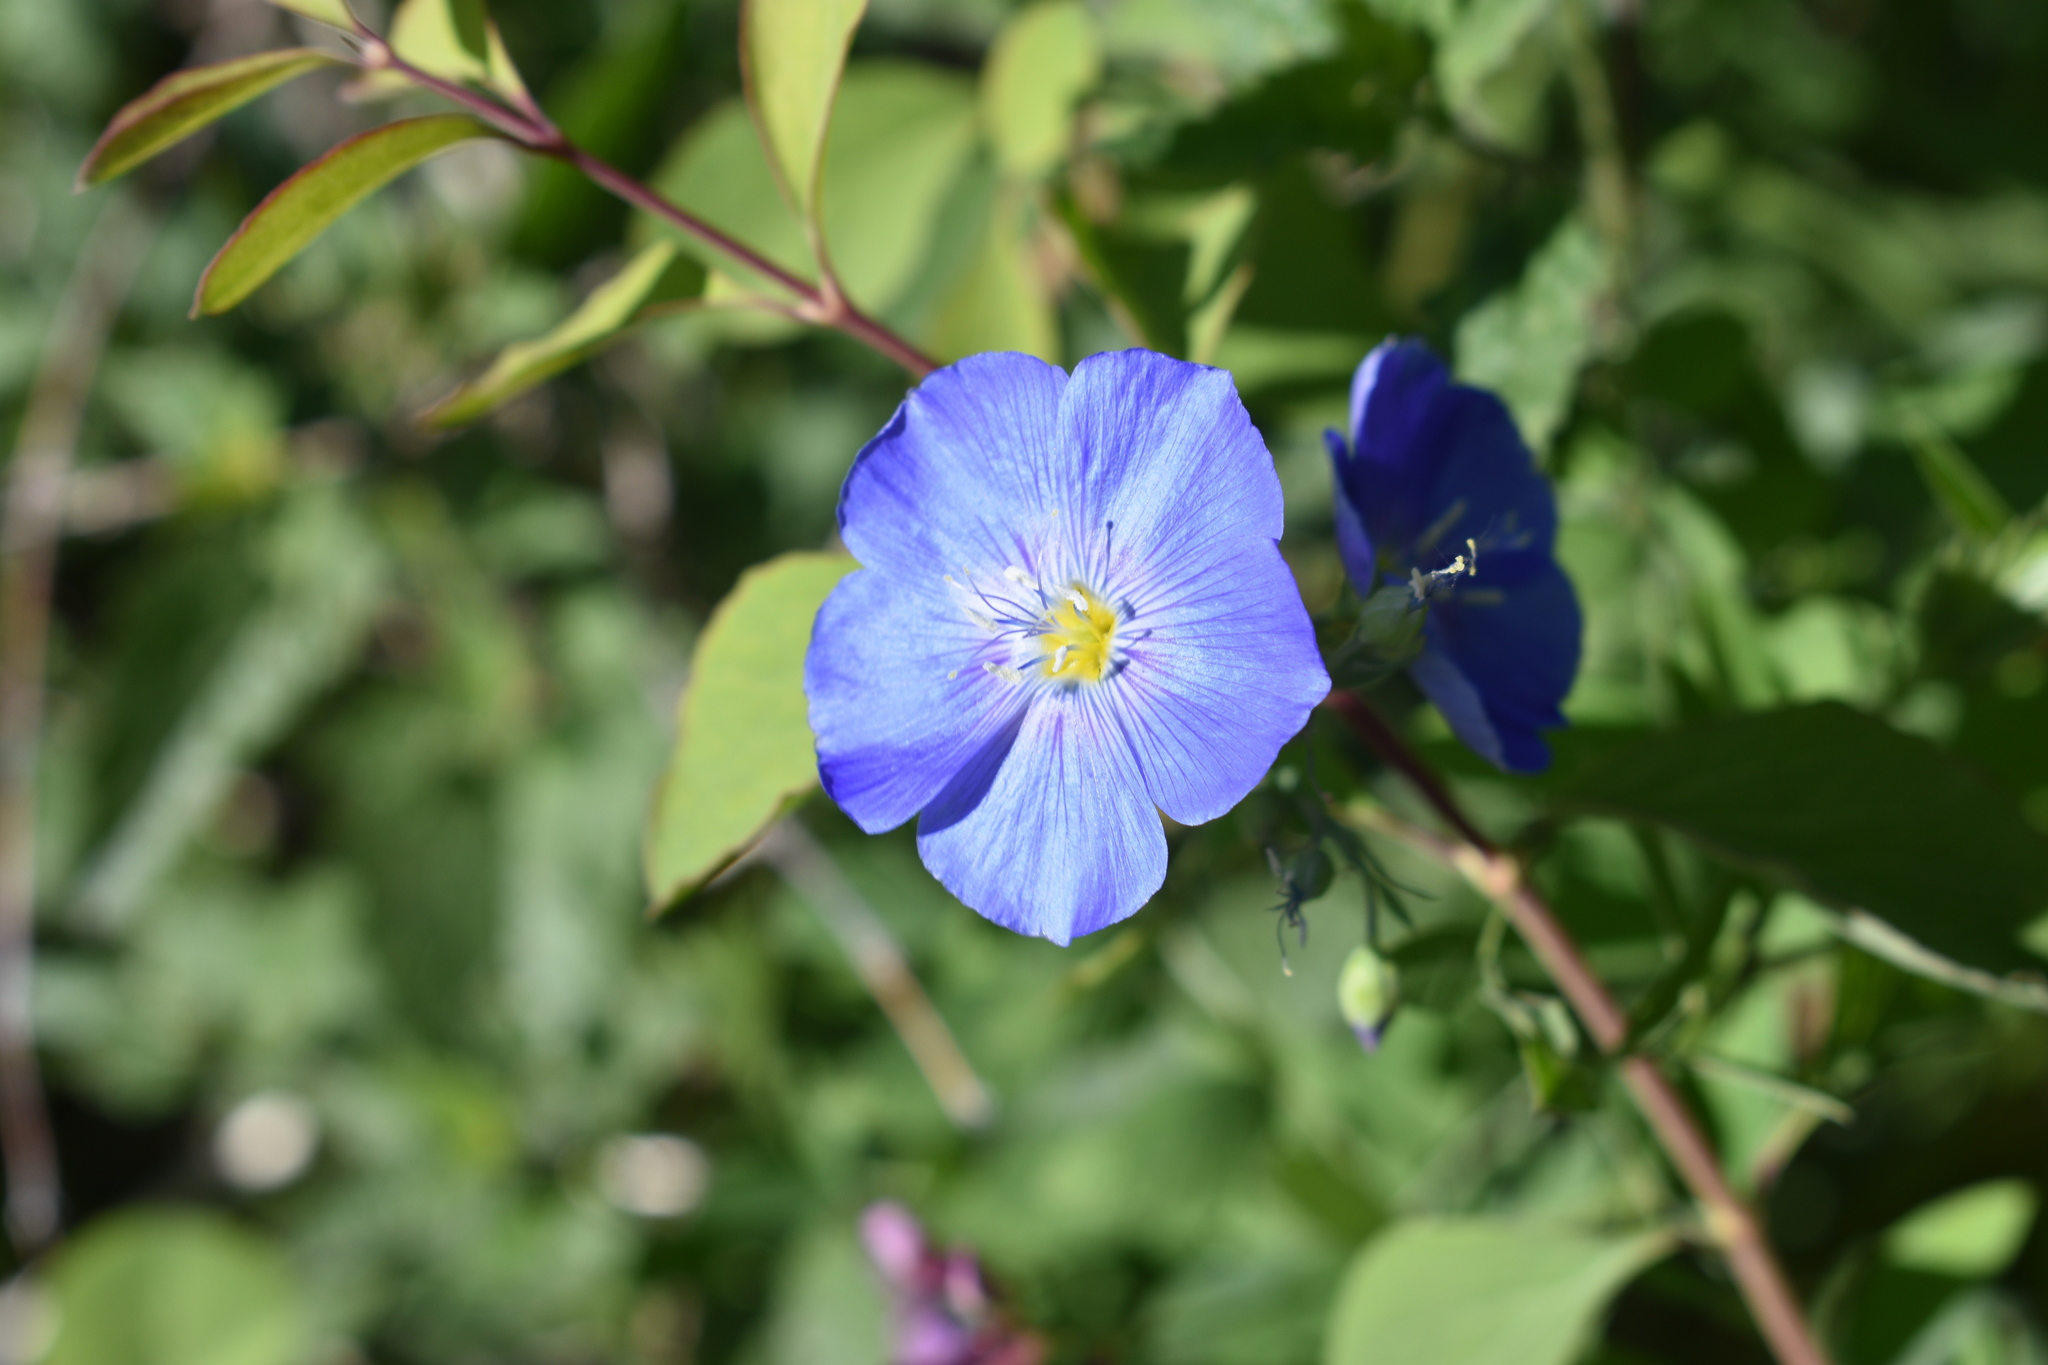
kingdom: Plantae
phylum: Tracheophyta
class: Magnoliopsida
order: Malpighiales
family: Linaceae
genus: Linum
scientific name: Linum lewisii
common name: Prairie flax
